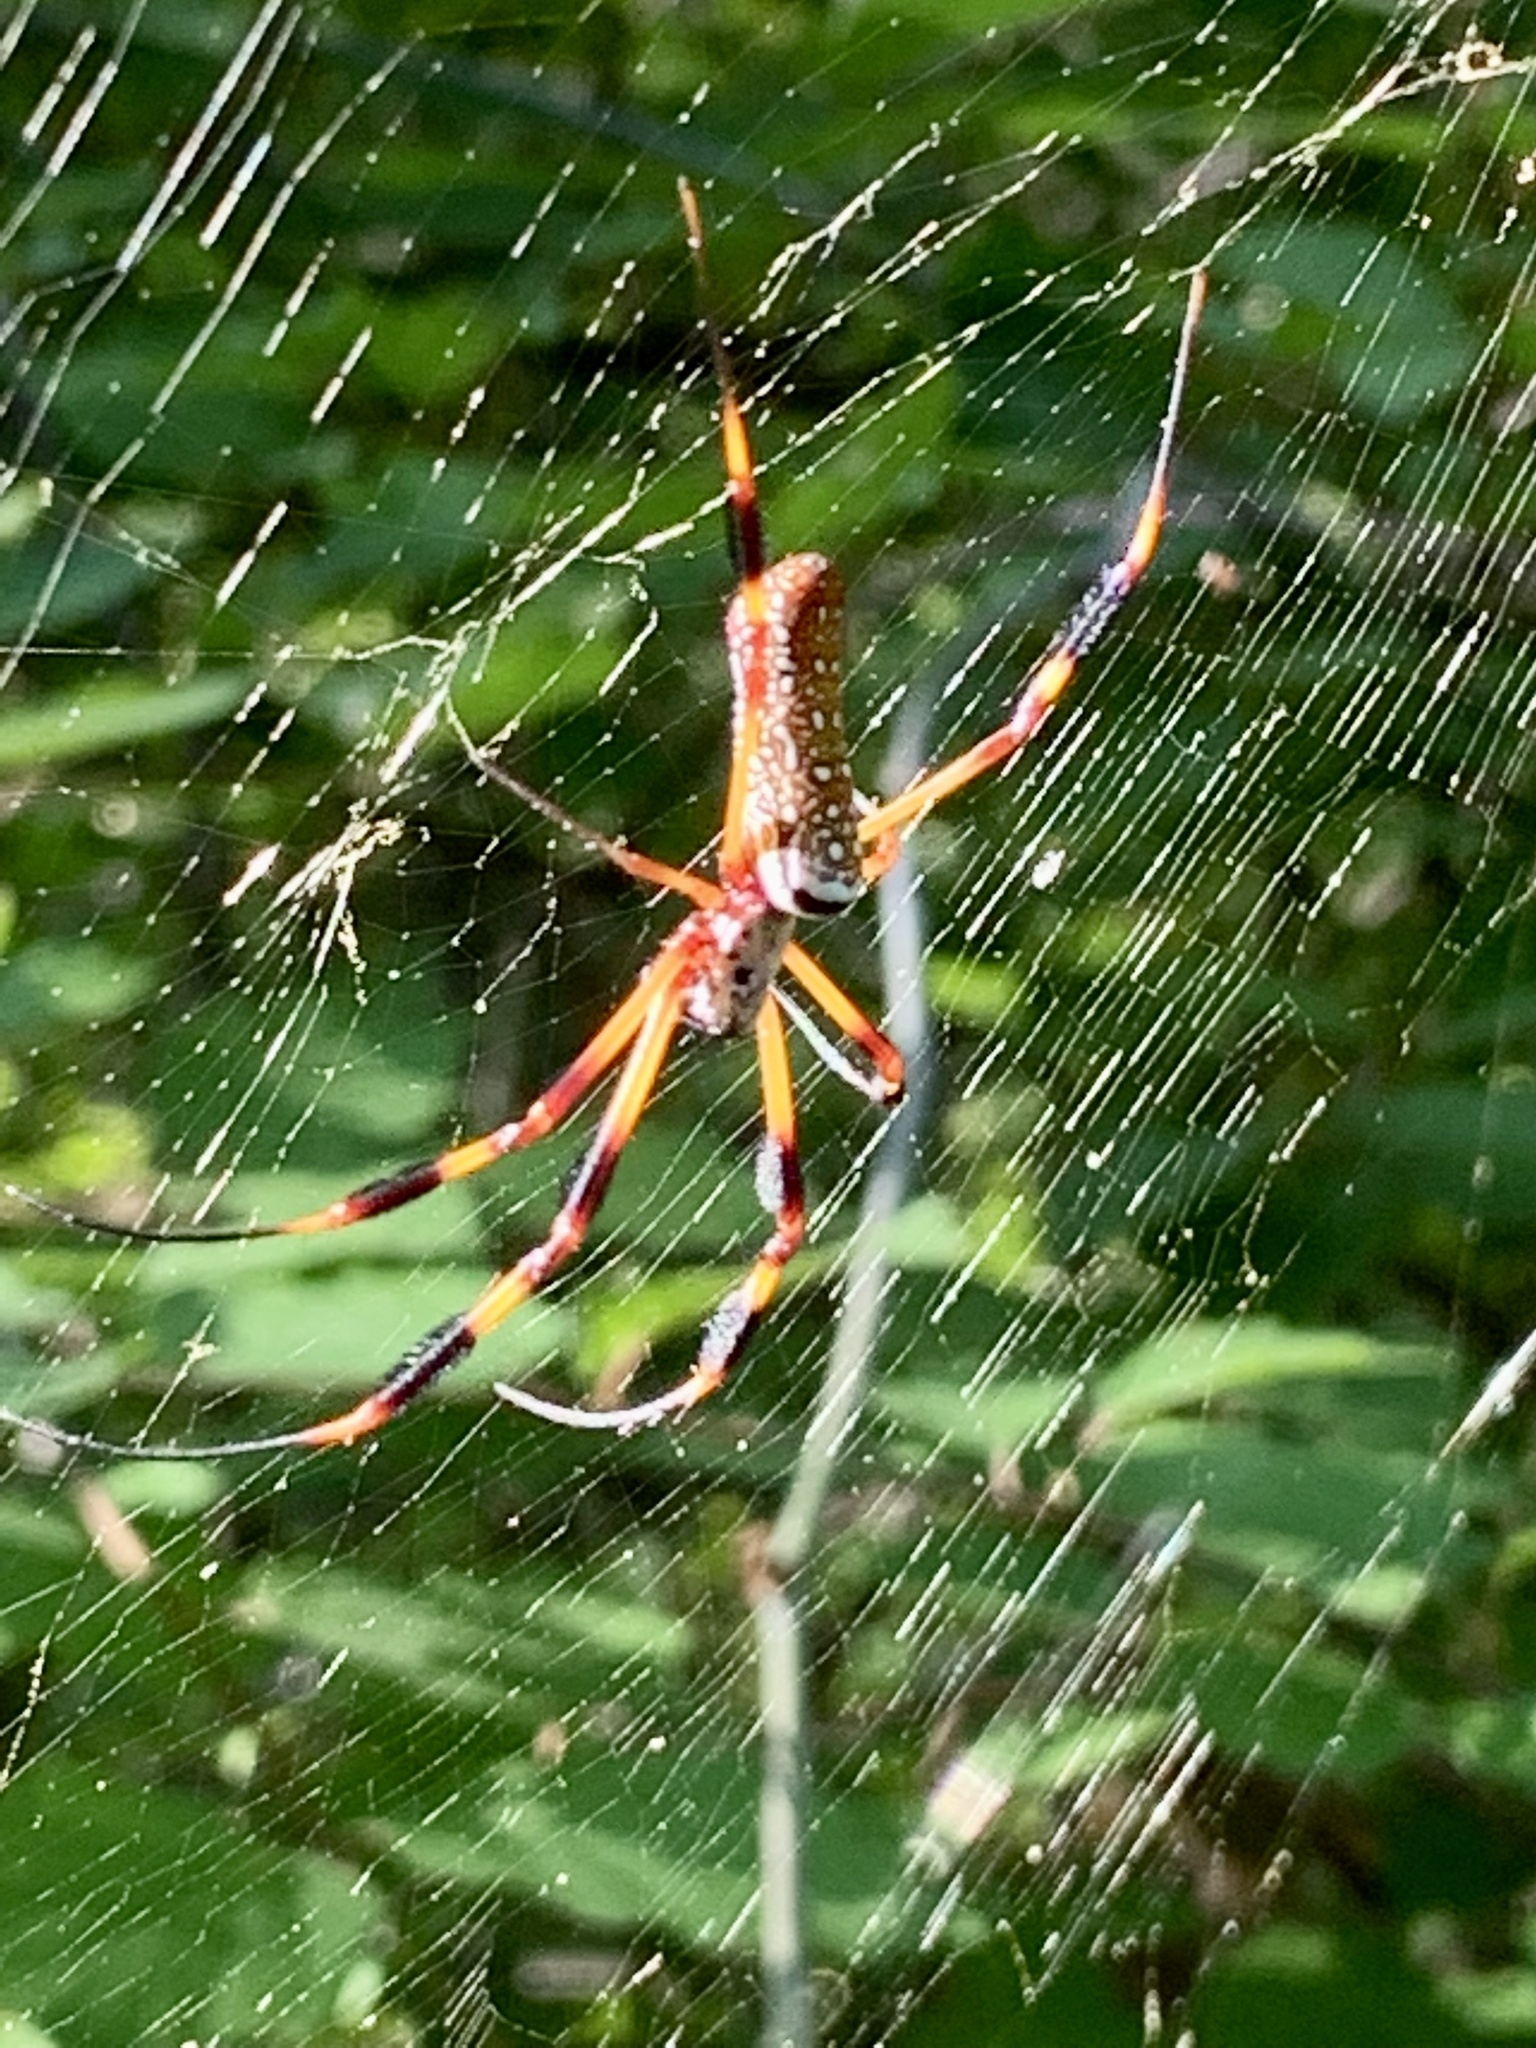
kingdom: Animalia
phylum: Arthropoda
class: Arachnida
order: Araneae
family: Araneidae
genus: Trichonephila
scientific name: Trichonephila clavipes
